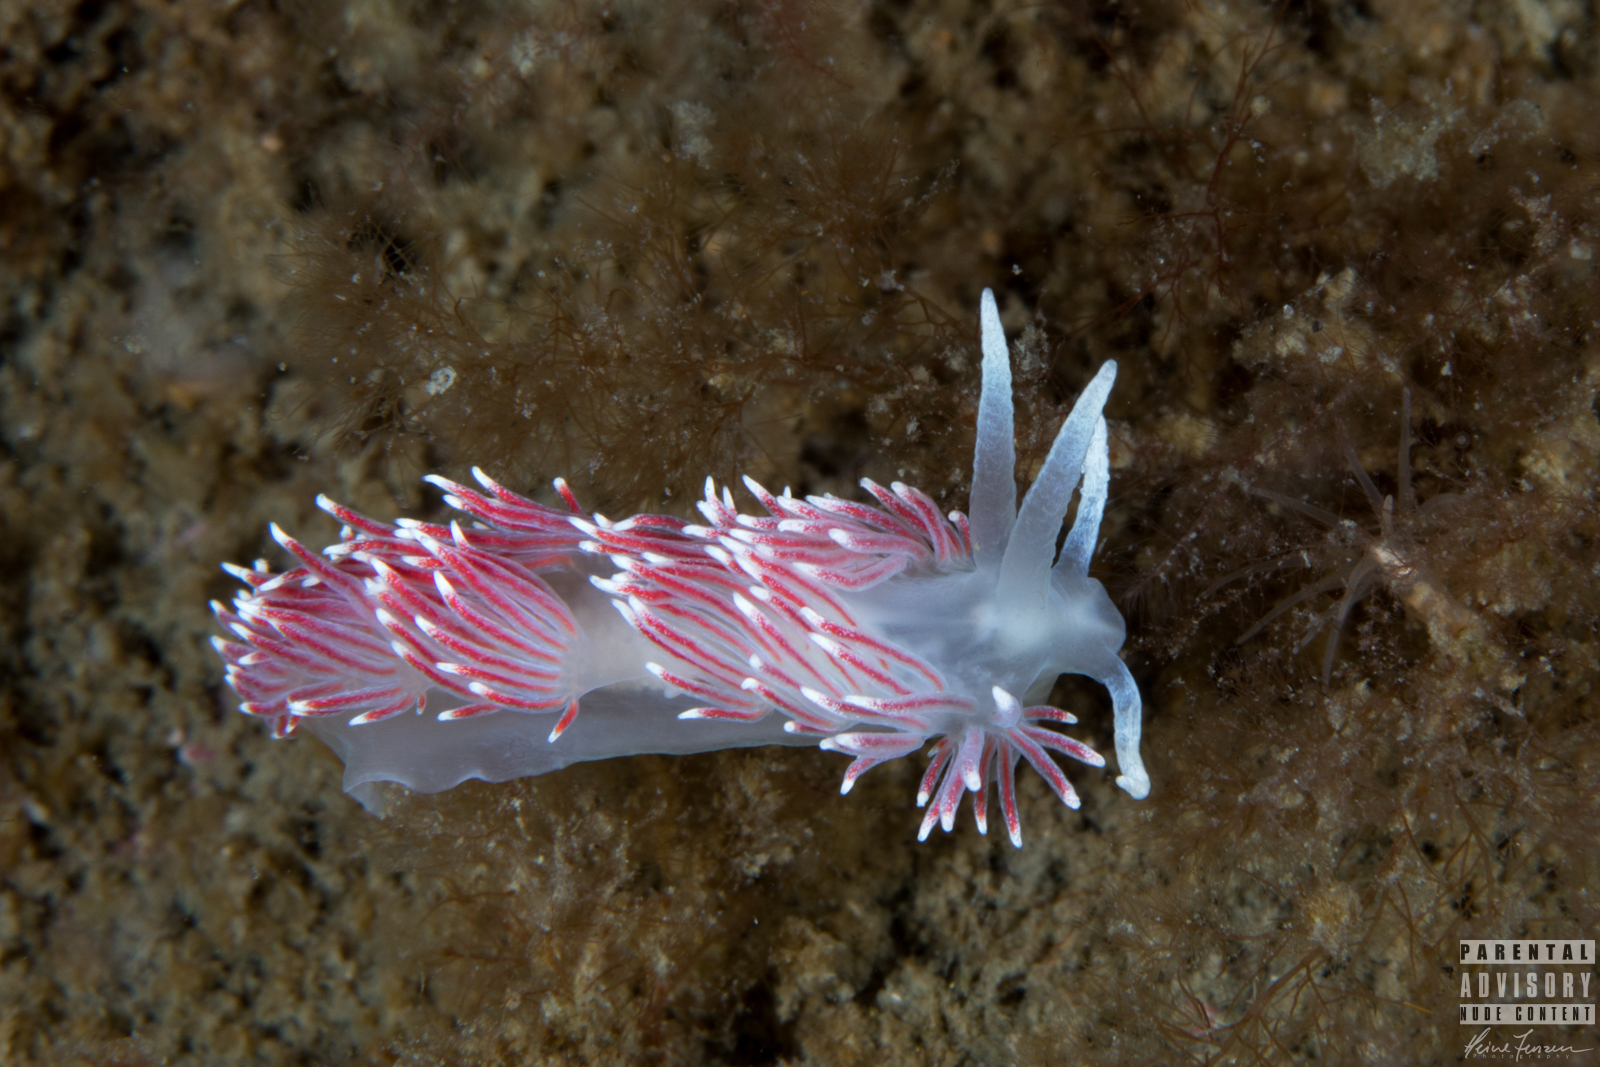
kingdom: Animalia
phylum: Mollusca
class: Gastropoda
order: Nudibranchia
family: Flabellinidae
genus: Carronella
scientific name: Carronella pellucida
